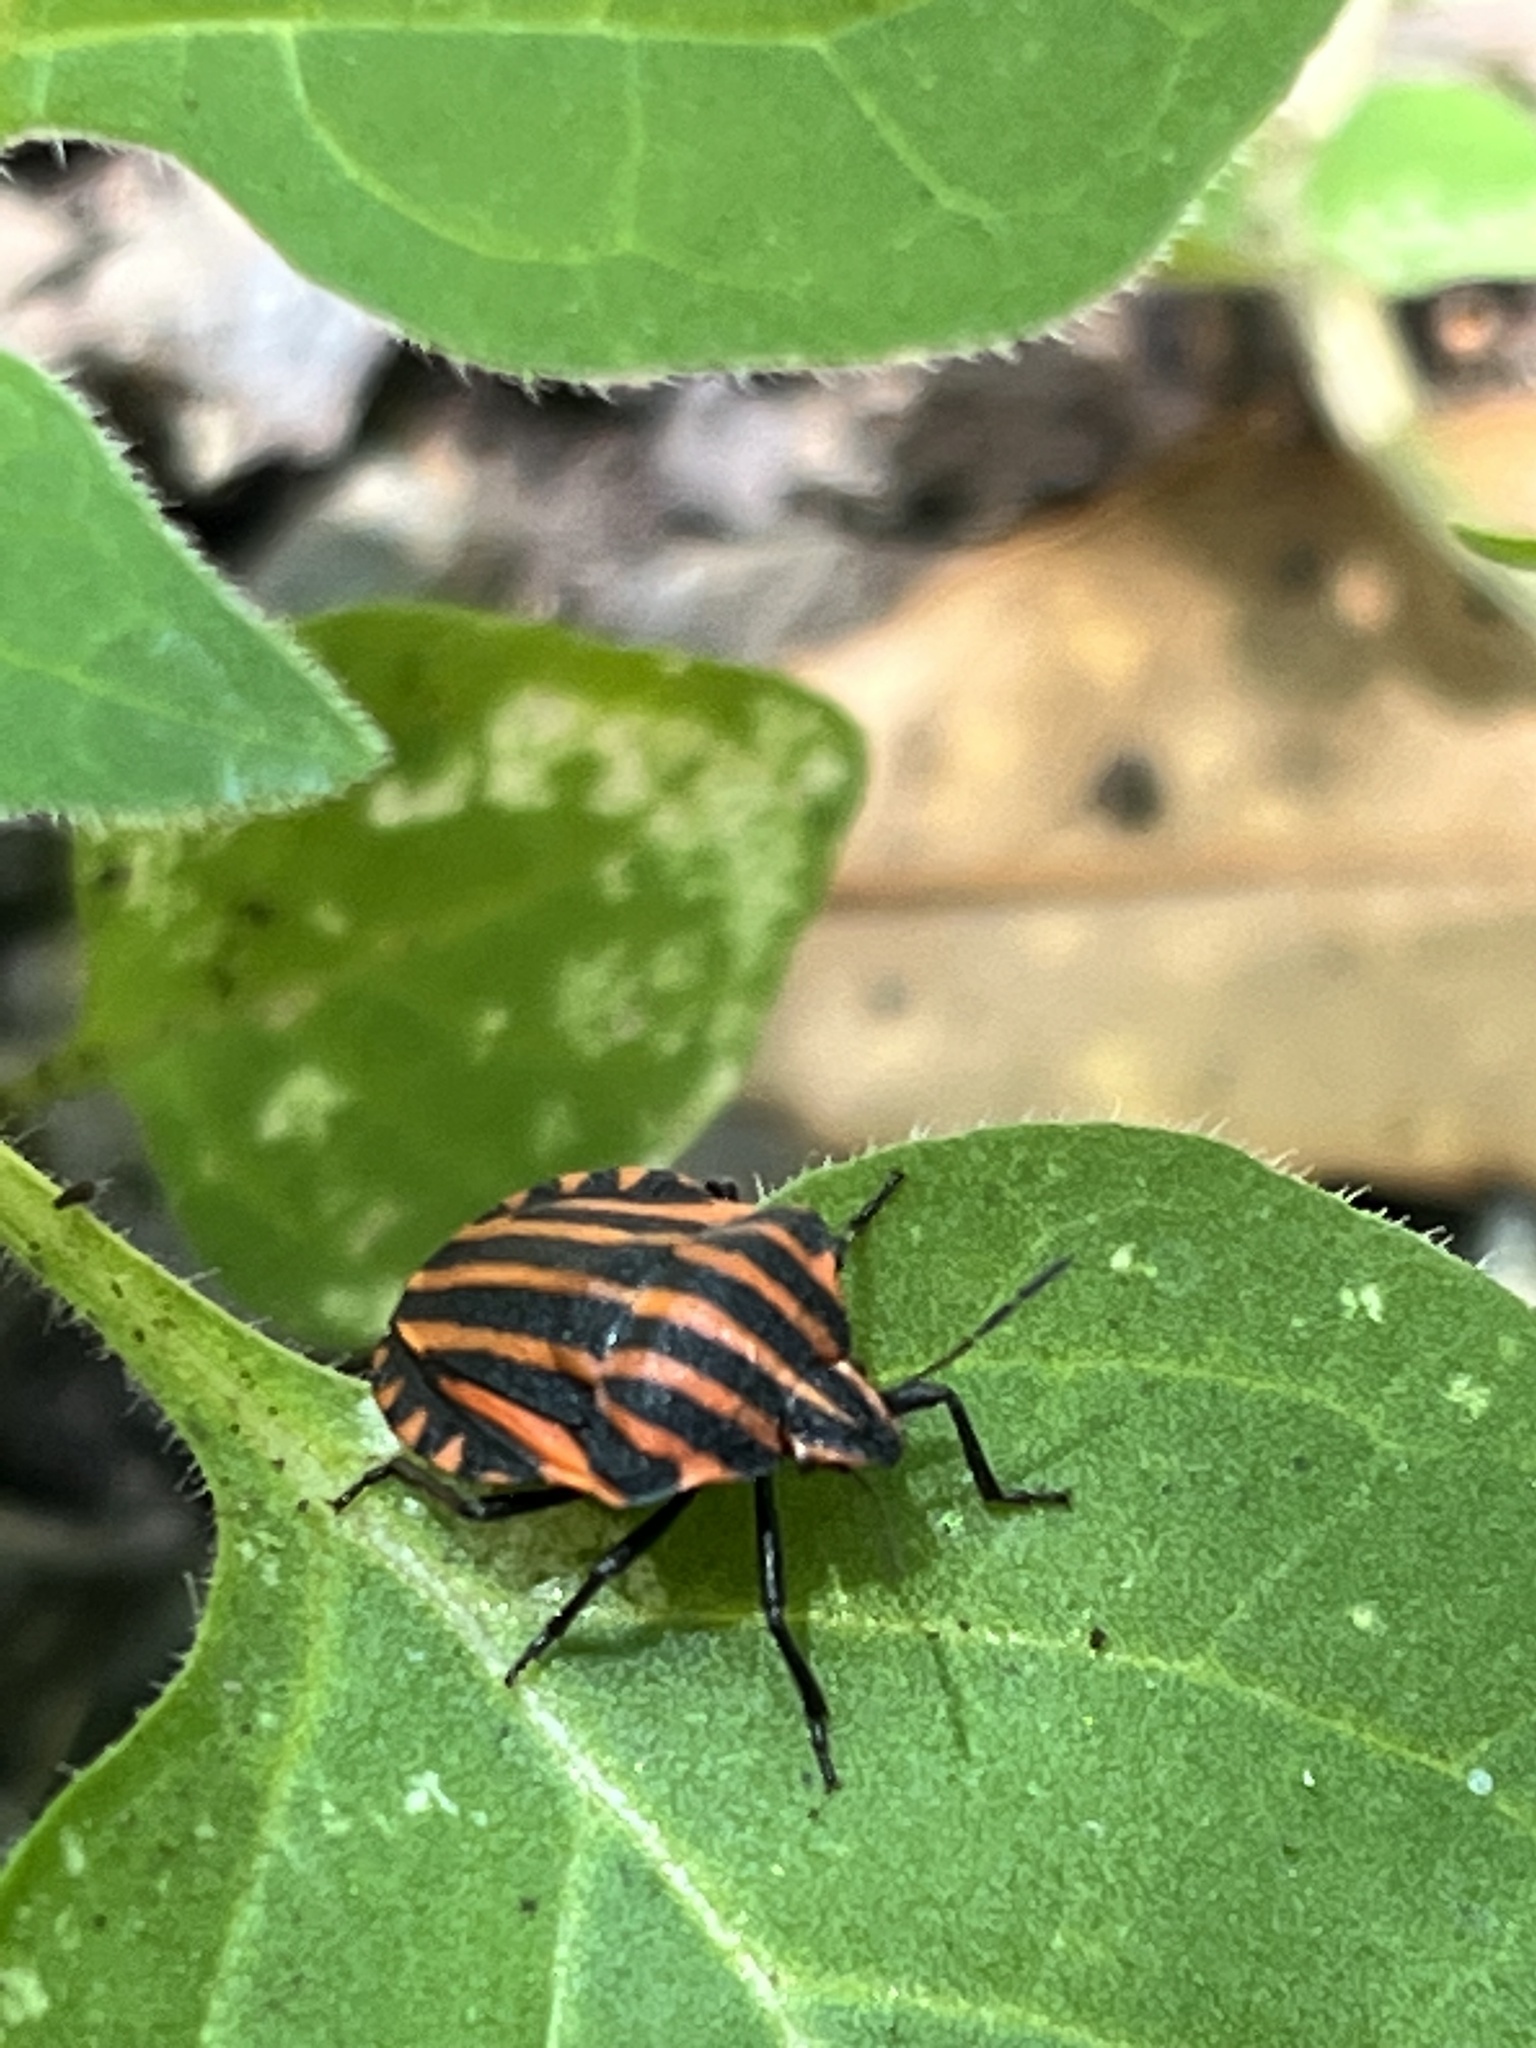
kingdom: Animalia
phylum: Arthropoda
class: Insecta
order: Hemiptera
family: Pentatomidae
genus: Graphosoma
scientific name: Graphosoma italicum
